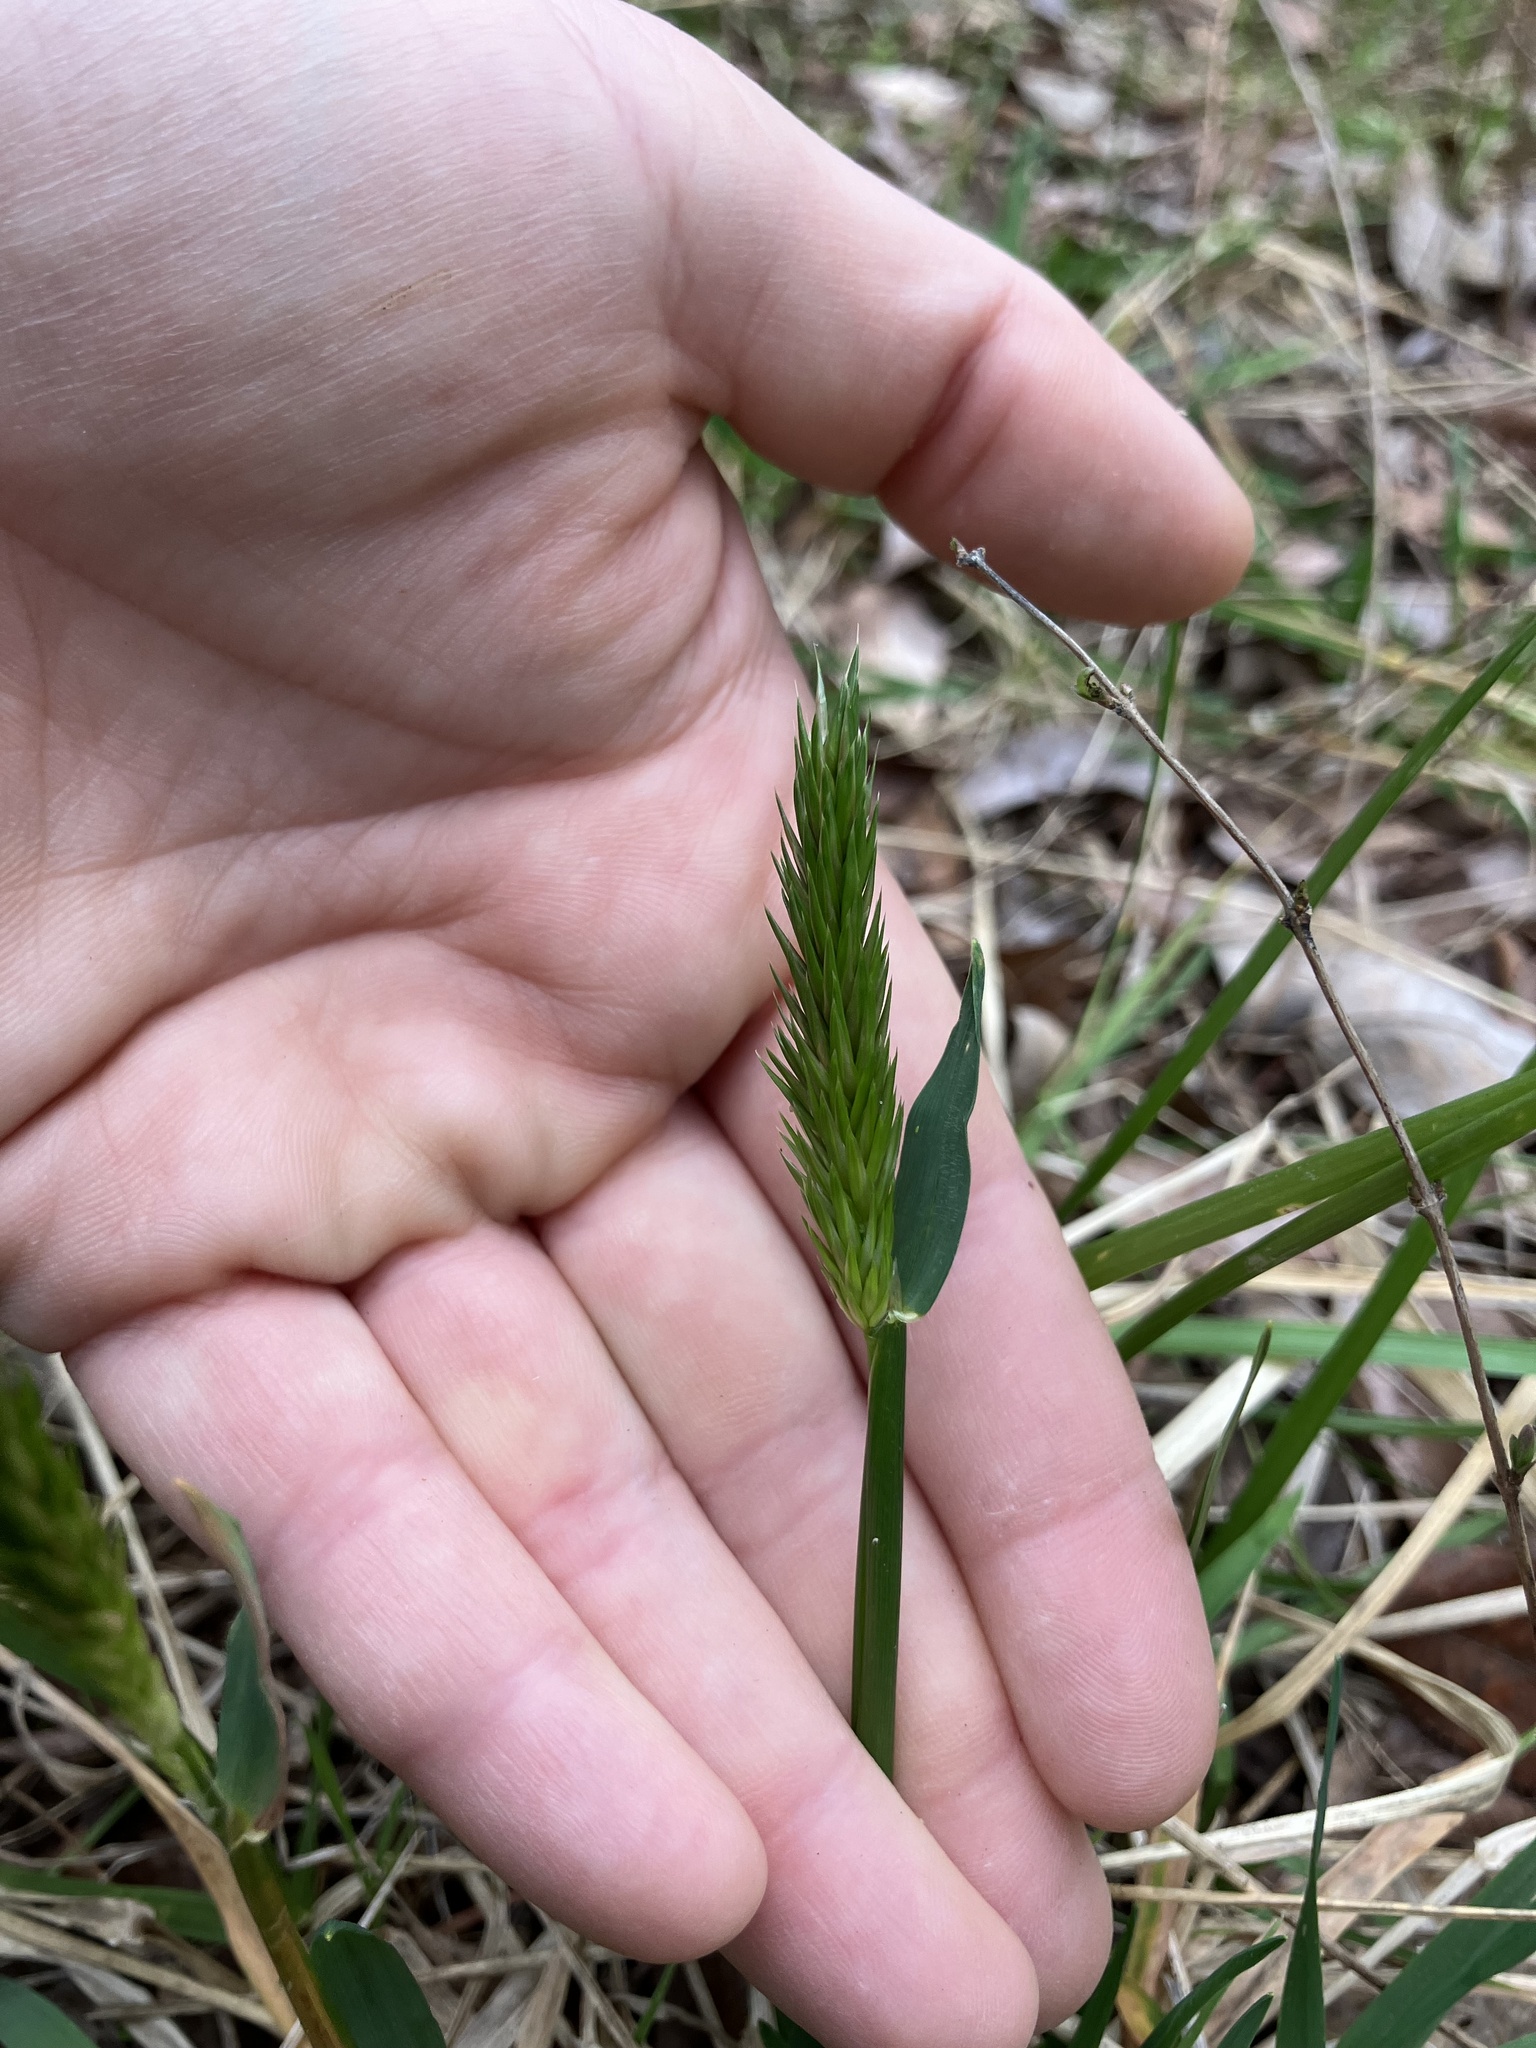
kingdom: Plantae
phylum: Tracheophyta
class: Liliopsida
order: Poales
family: Poaceae
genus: Anthoxanthum
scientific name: Anthoxanthum odoratum
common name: Sweet vernalgrass
